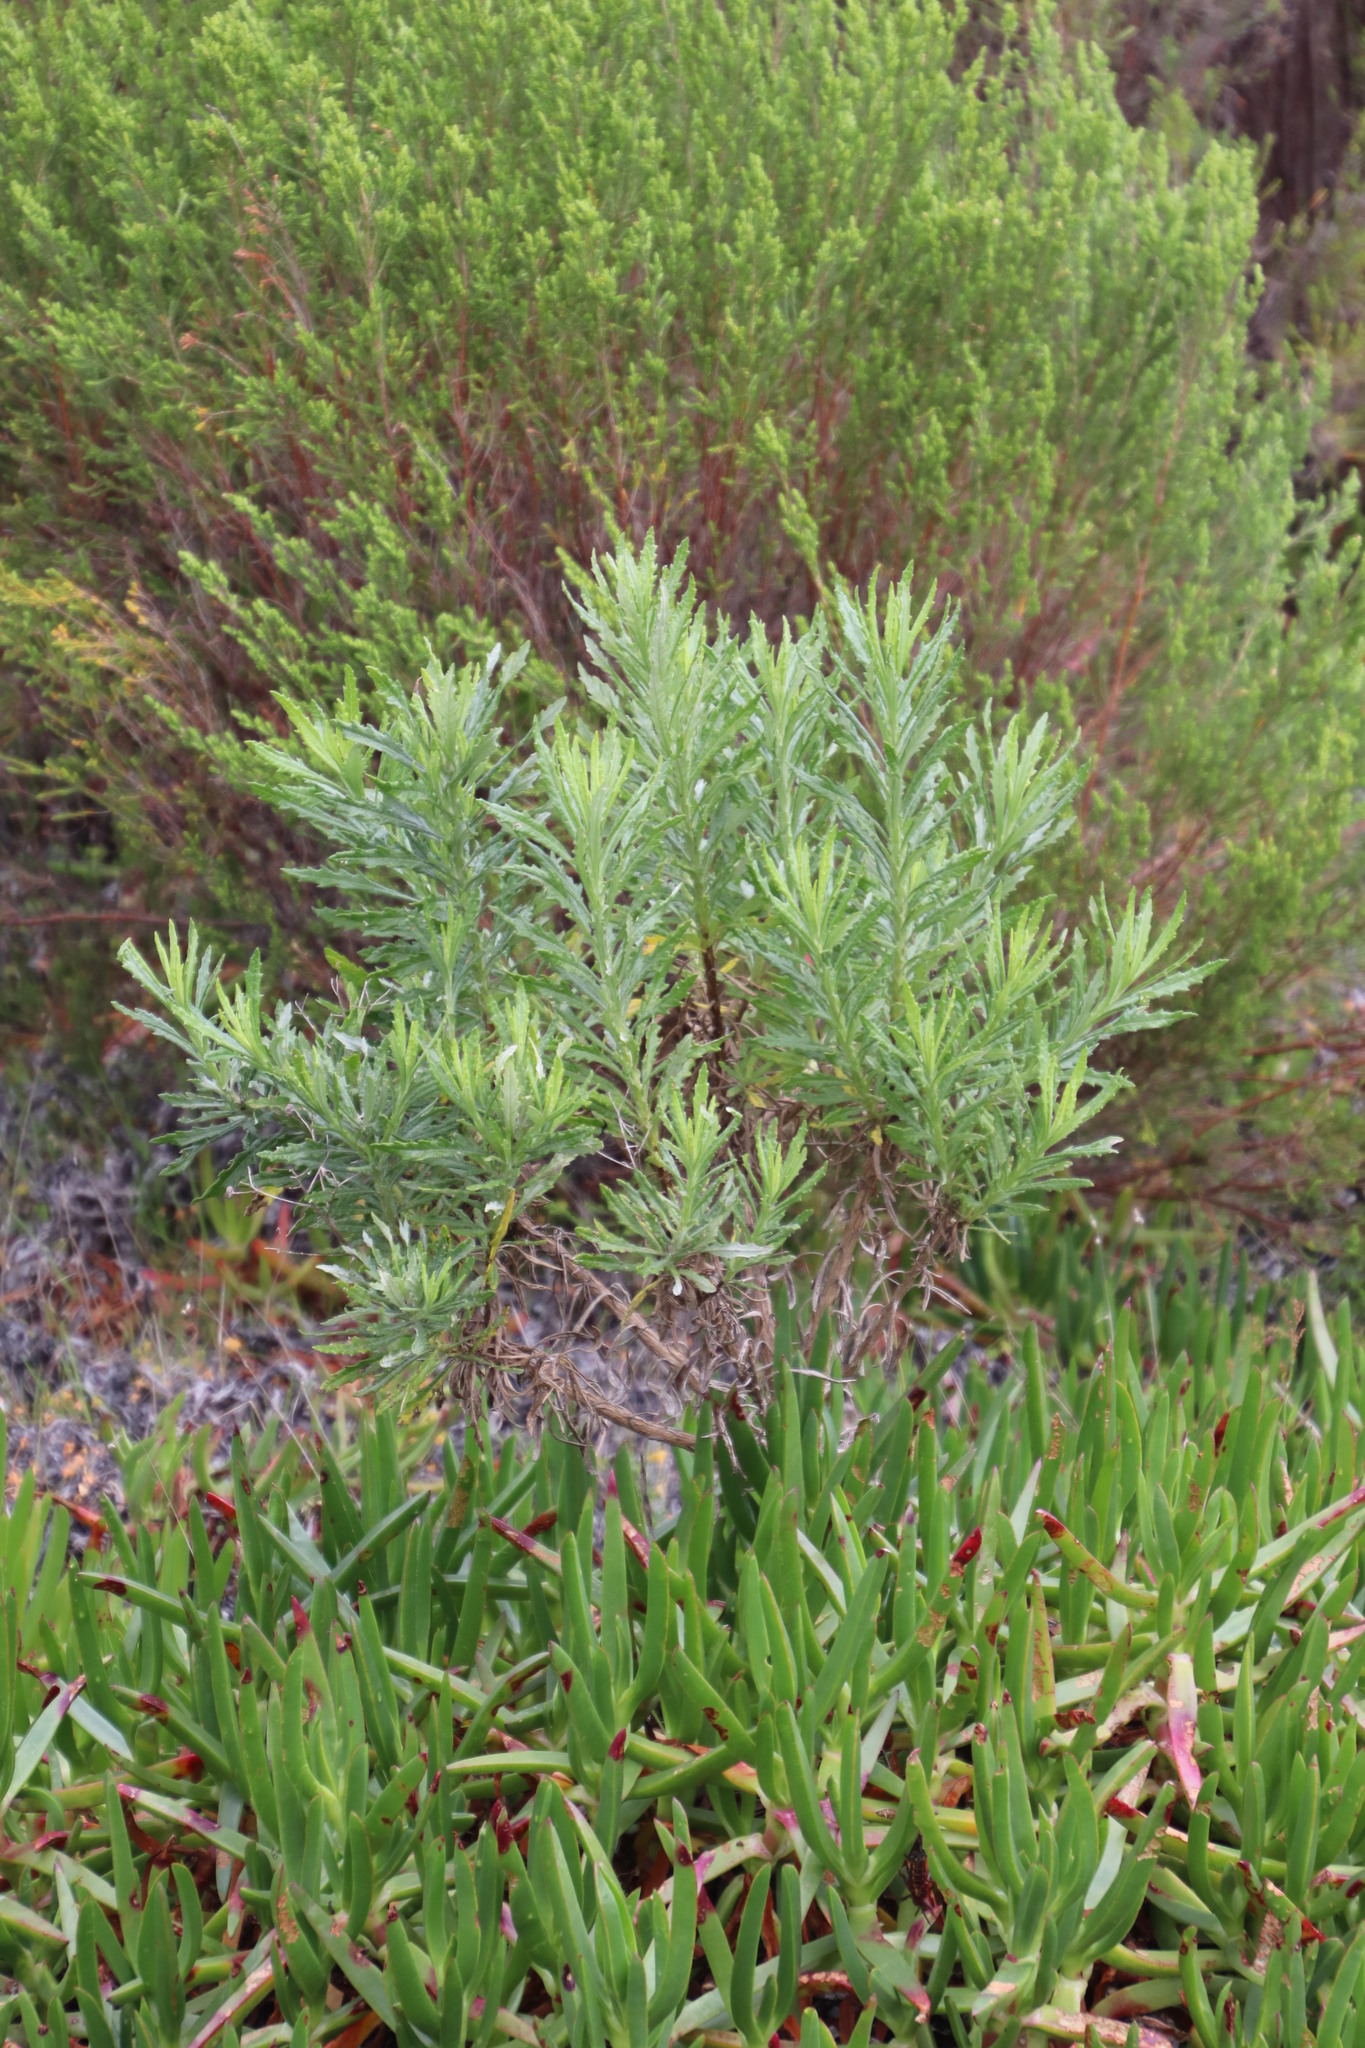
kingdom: Plantae
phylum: Tracheophyta
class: Magnoliopsida
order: Asterales
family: Asteraceae
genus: Senecio
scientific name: Senecio pterophorus
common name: Shoddy ragwort
